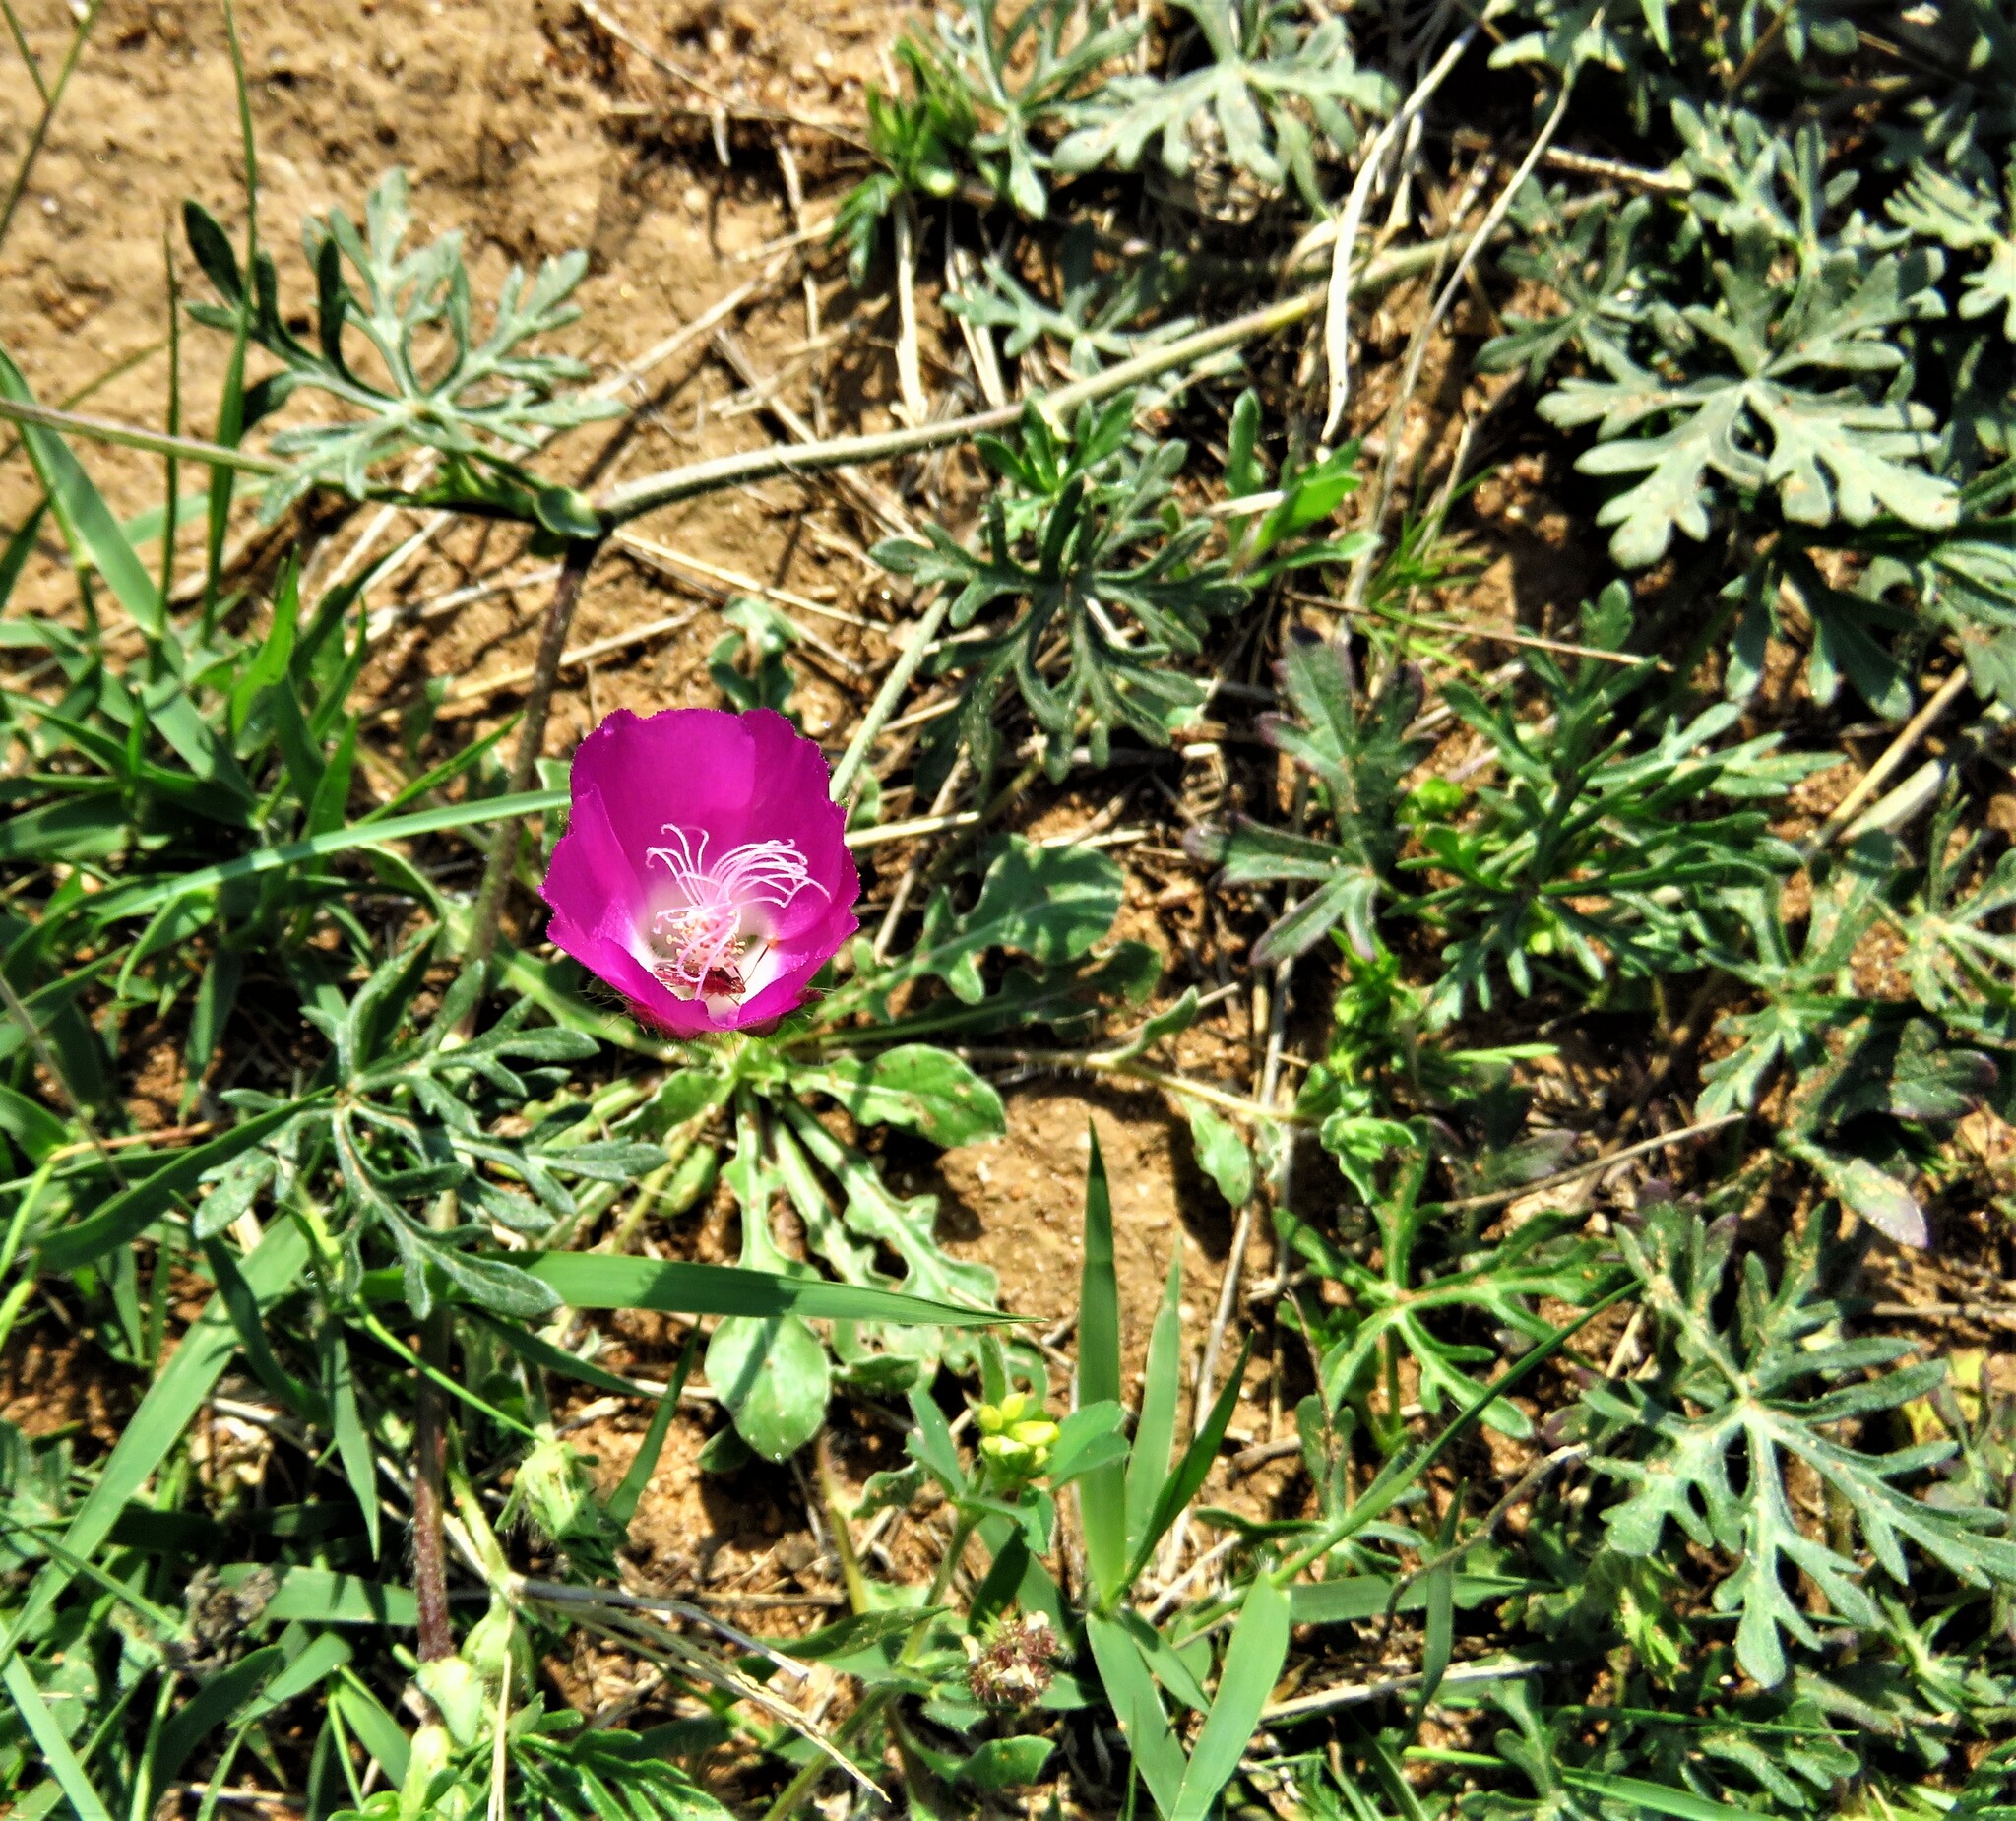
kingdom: Plantae
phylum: Tracheophyta
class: Magnoliopsida
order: Malvales
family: Malvaceae
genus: Callirhoe
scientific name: Callirhoe involucrata
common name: Purple poppy-mallow
